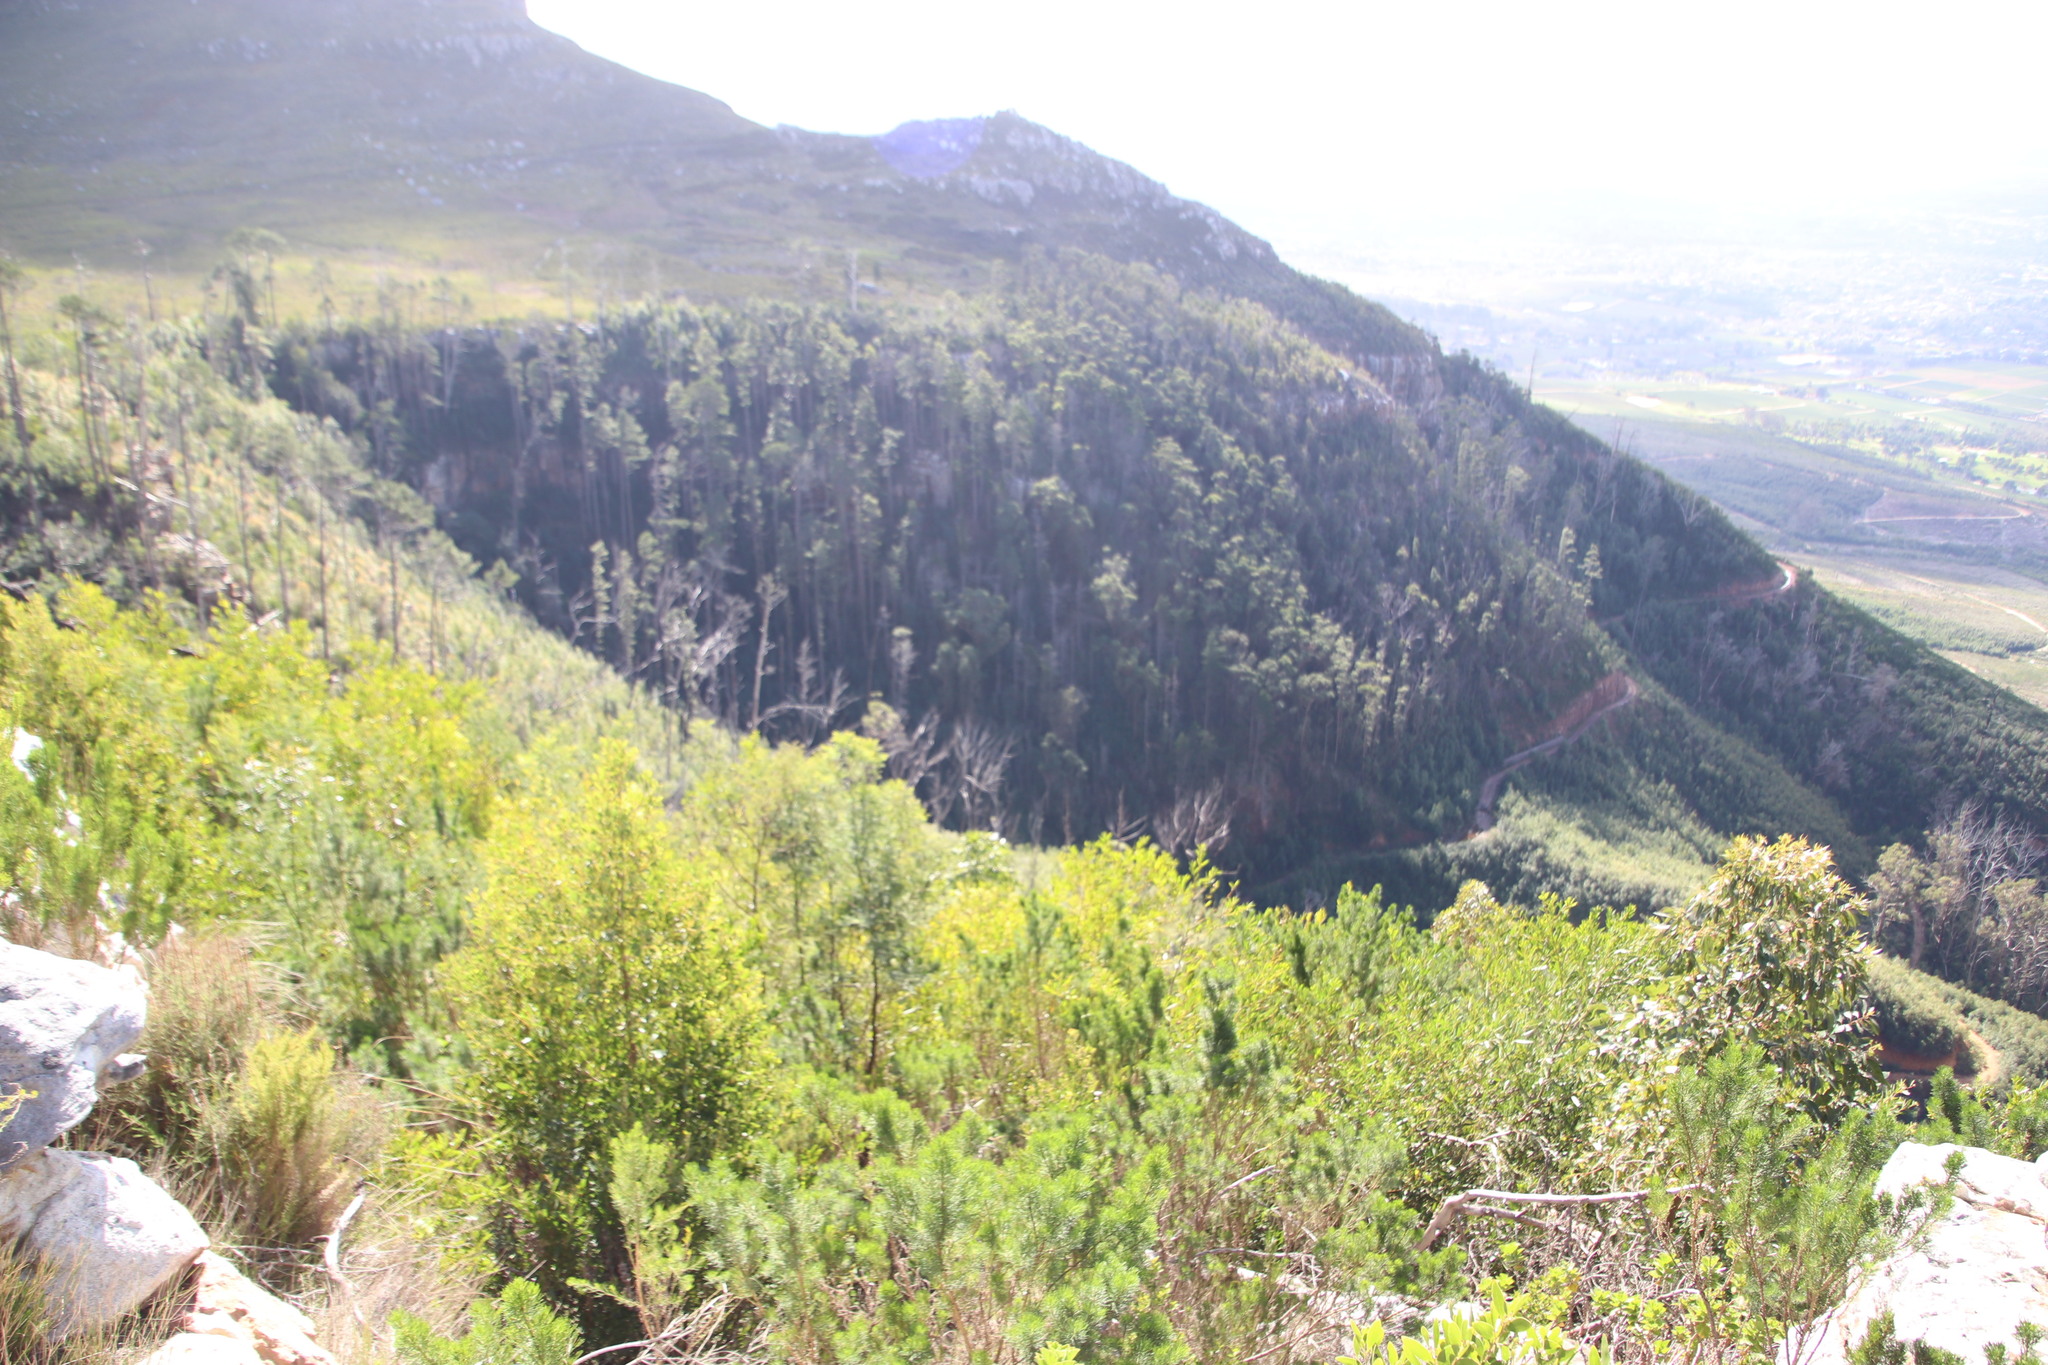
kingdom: Plantae
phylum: Tracheophyta
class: Magnoliopsida
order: Fabales
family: Fabaceae
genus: Acacia
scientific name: Acacia melanoxylon
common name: Blackwood
